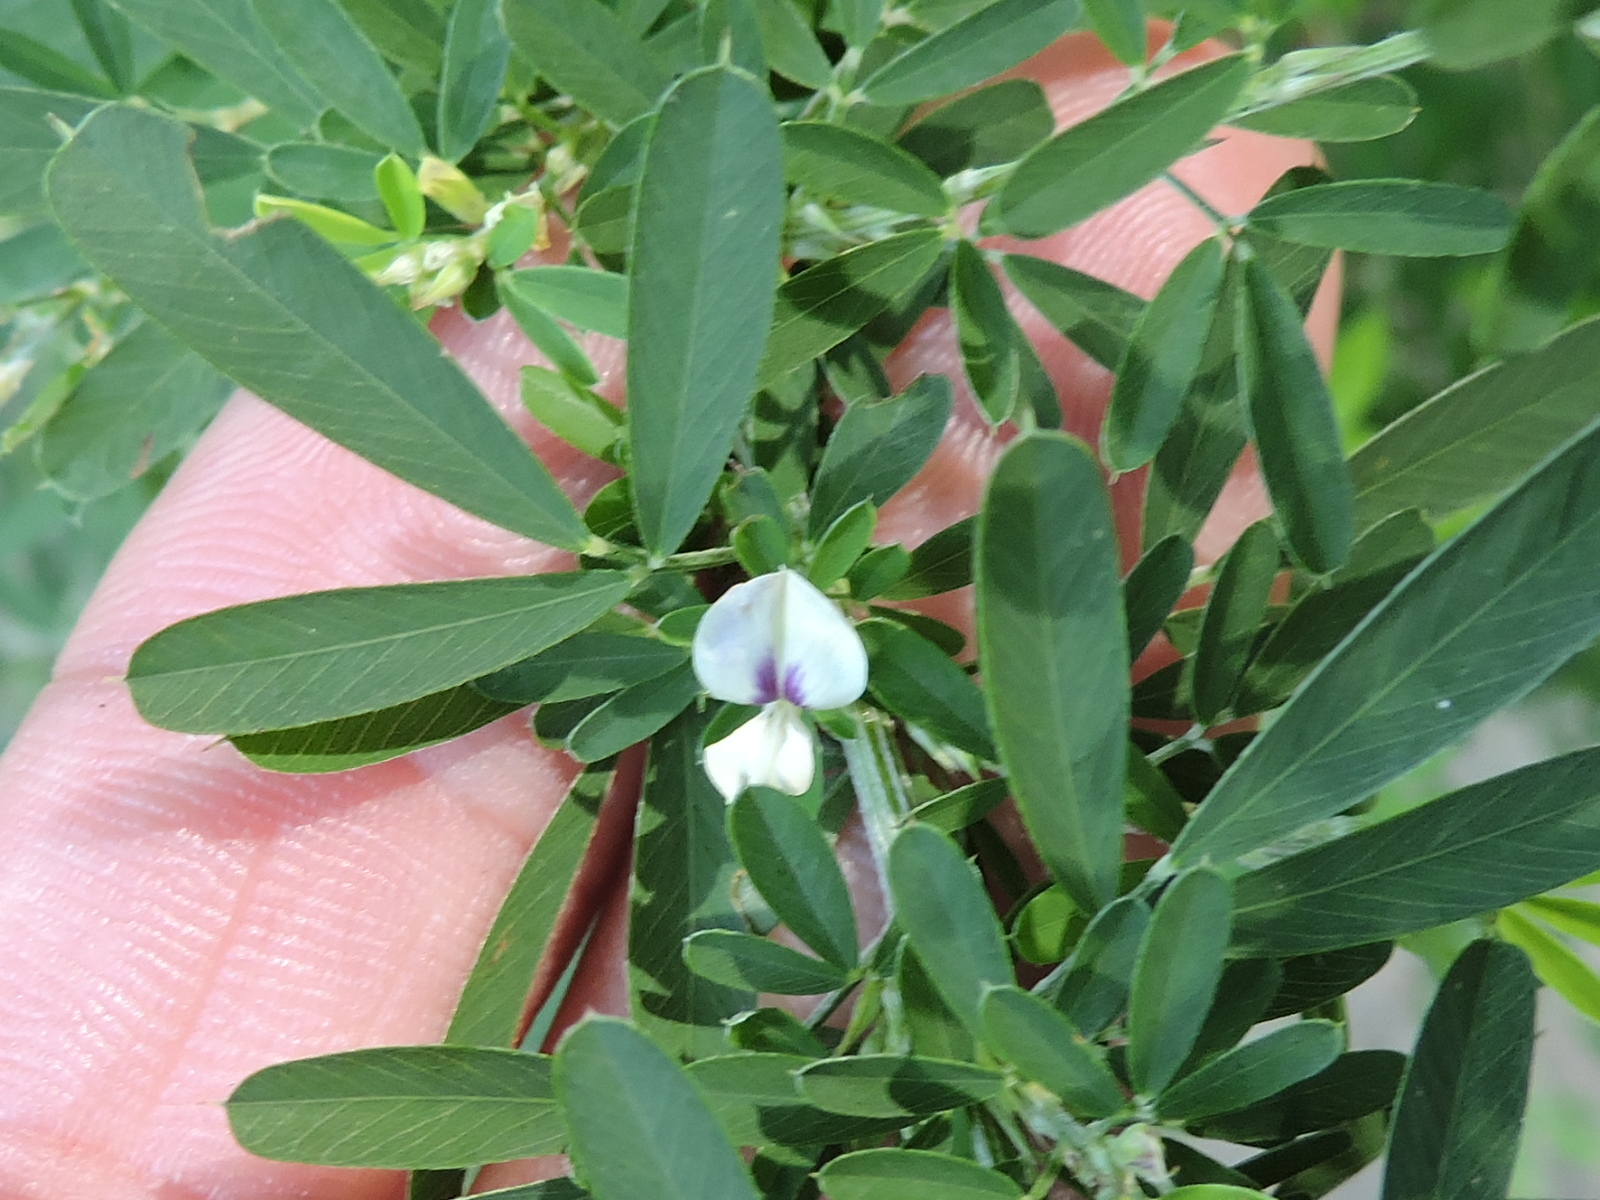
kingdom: Plantae
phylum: Tracheophyta
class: Magnoliopsida
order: Fabales
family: Fabaceae
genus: Lespedeza
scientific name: Lespedeza cuneata
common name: Chinese bush-clover
